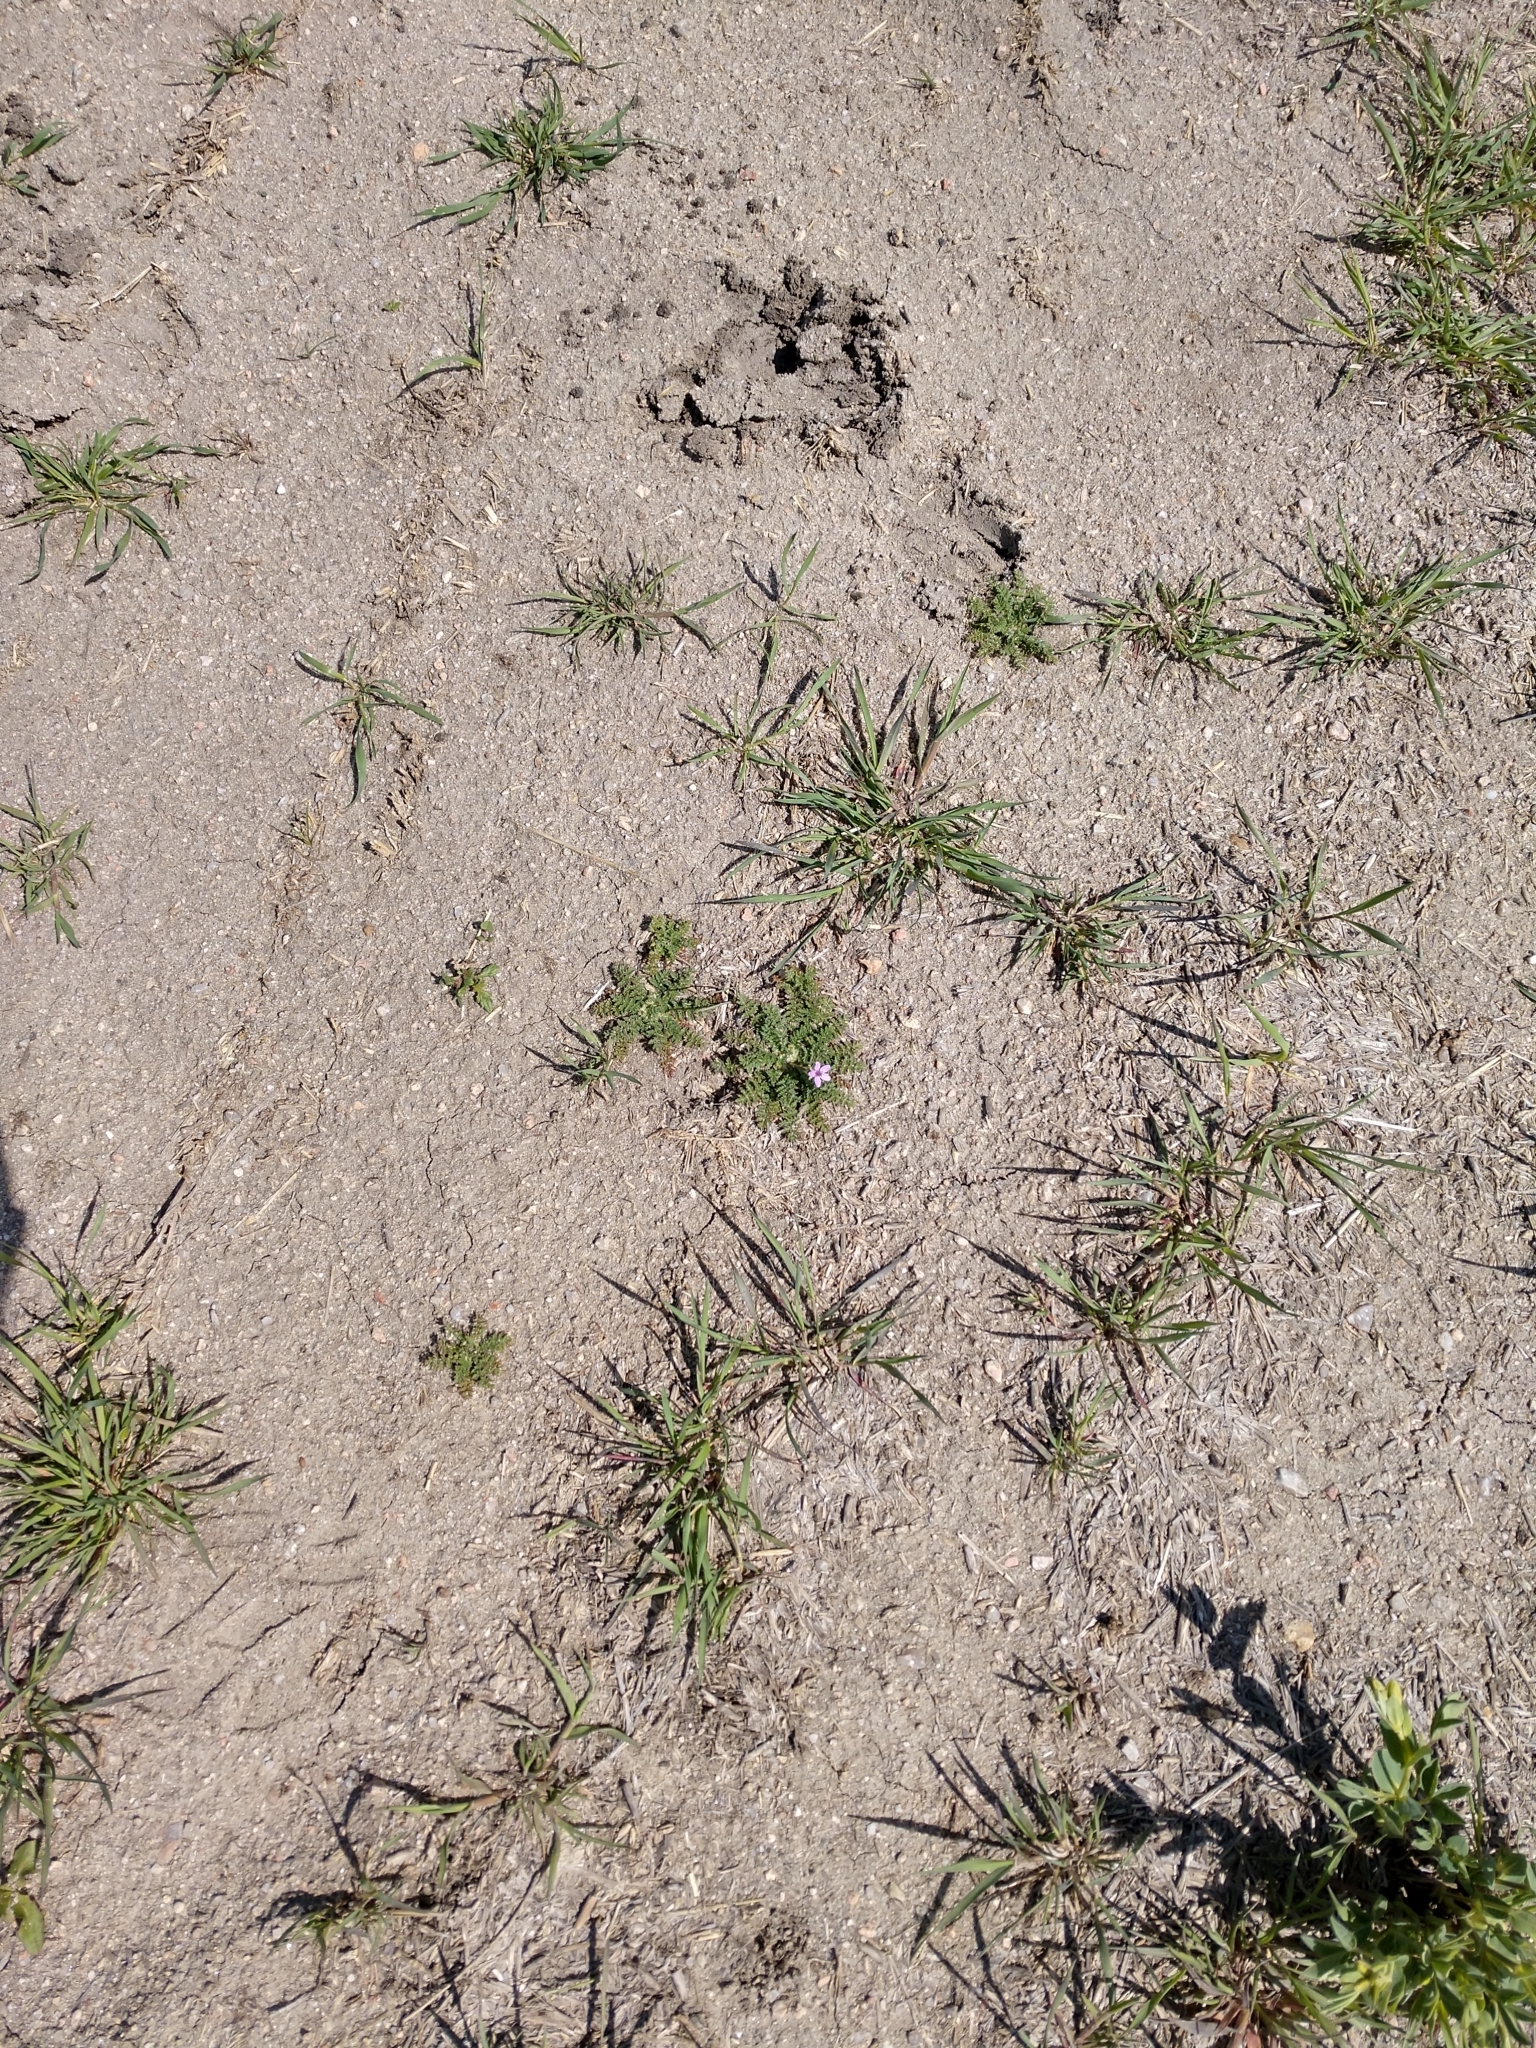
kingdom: Plantae
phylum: Tracheophyta
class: Magnoliopsida
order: Geraniales
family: Geraniaceae
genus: Erodium
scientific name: Erodium cicutarium
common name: Common stork's-bill
